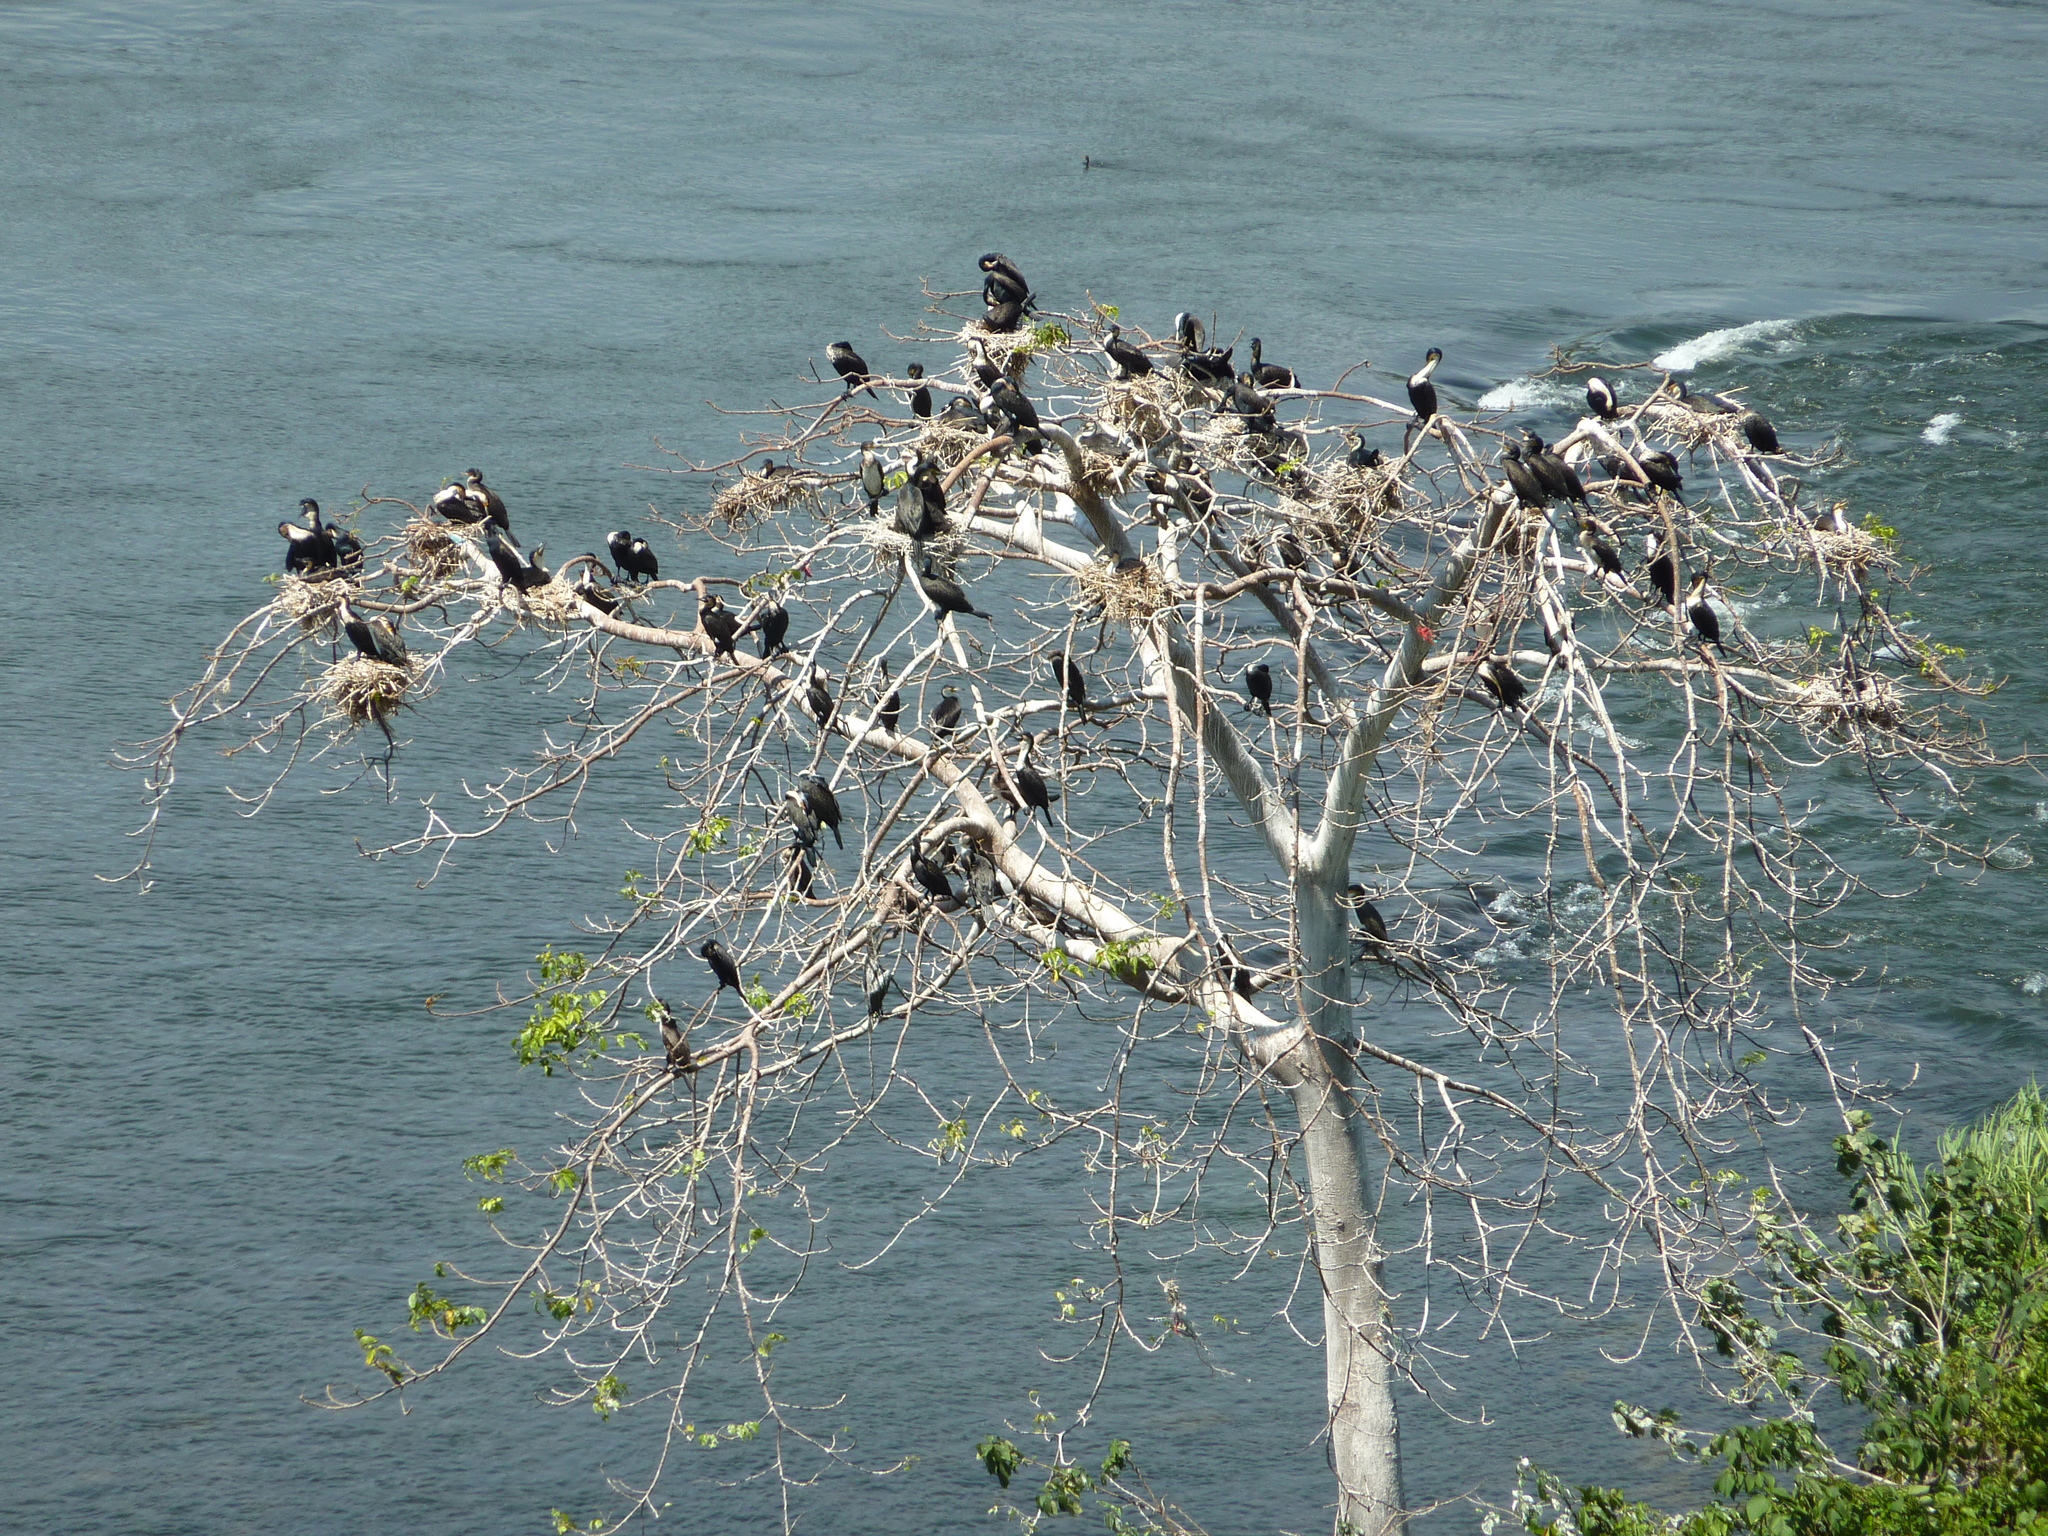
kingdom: Animalia
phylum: Chordata
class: Aves
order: Suliformes
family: Phalacrocoracidae
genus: Phalacrocorax
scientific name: Phalacrocorax carbo
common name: Great cormorant
